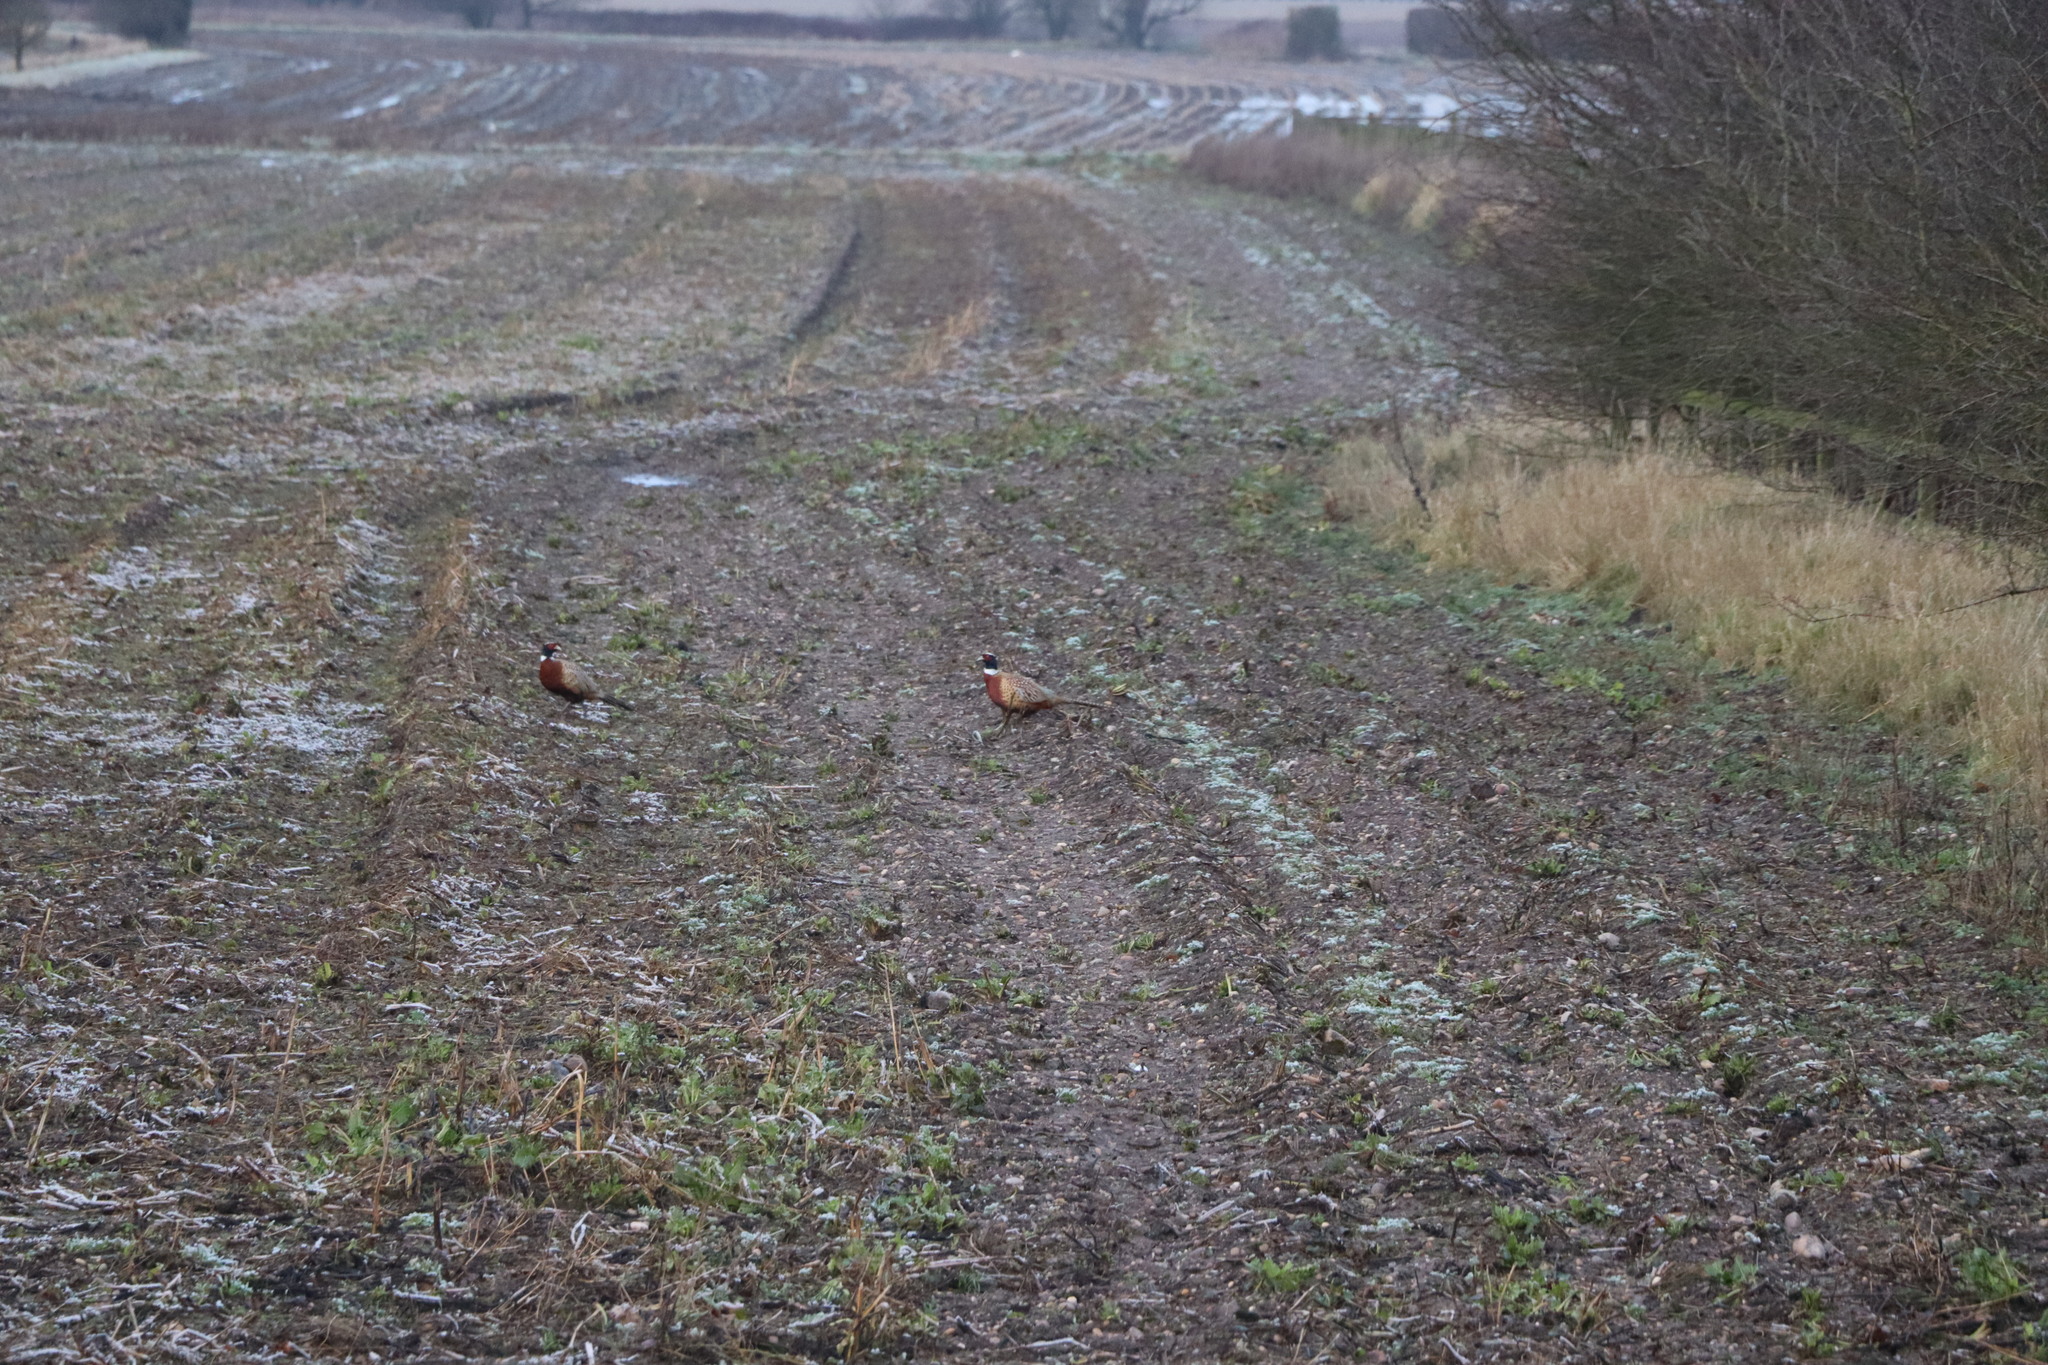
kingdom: Animalia
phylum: Chordata
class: Aves
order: Galliformes
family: Phasianidae
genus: Phasianus
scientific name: Phasianus colchicus
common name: Common pheasant
